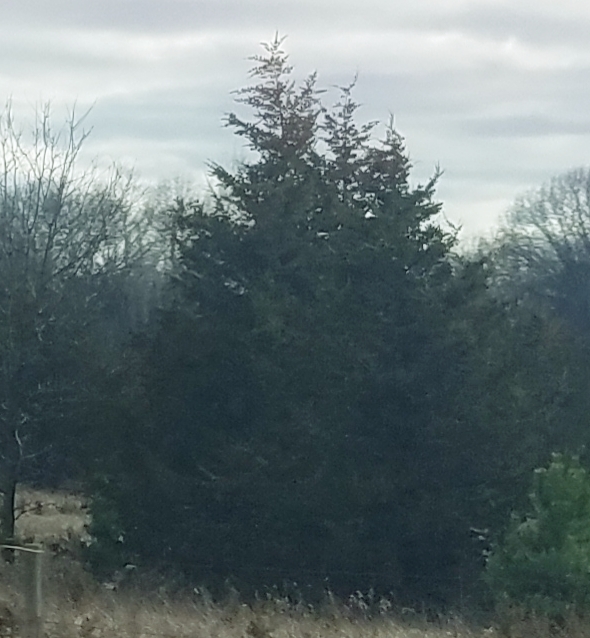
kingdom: Plantae
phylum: Tracheophyta
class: Pinopsida
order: Pinales
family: Cupressaceae
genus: Juniperus
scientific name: Juniperus virginiana
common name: Red juniper
